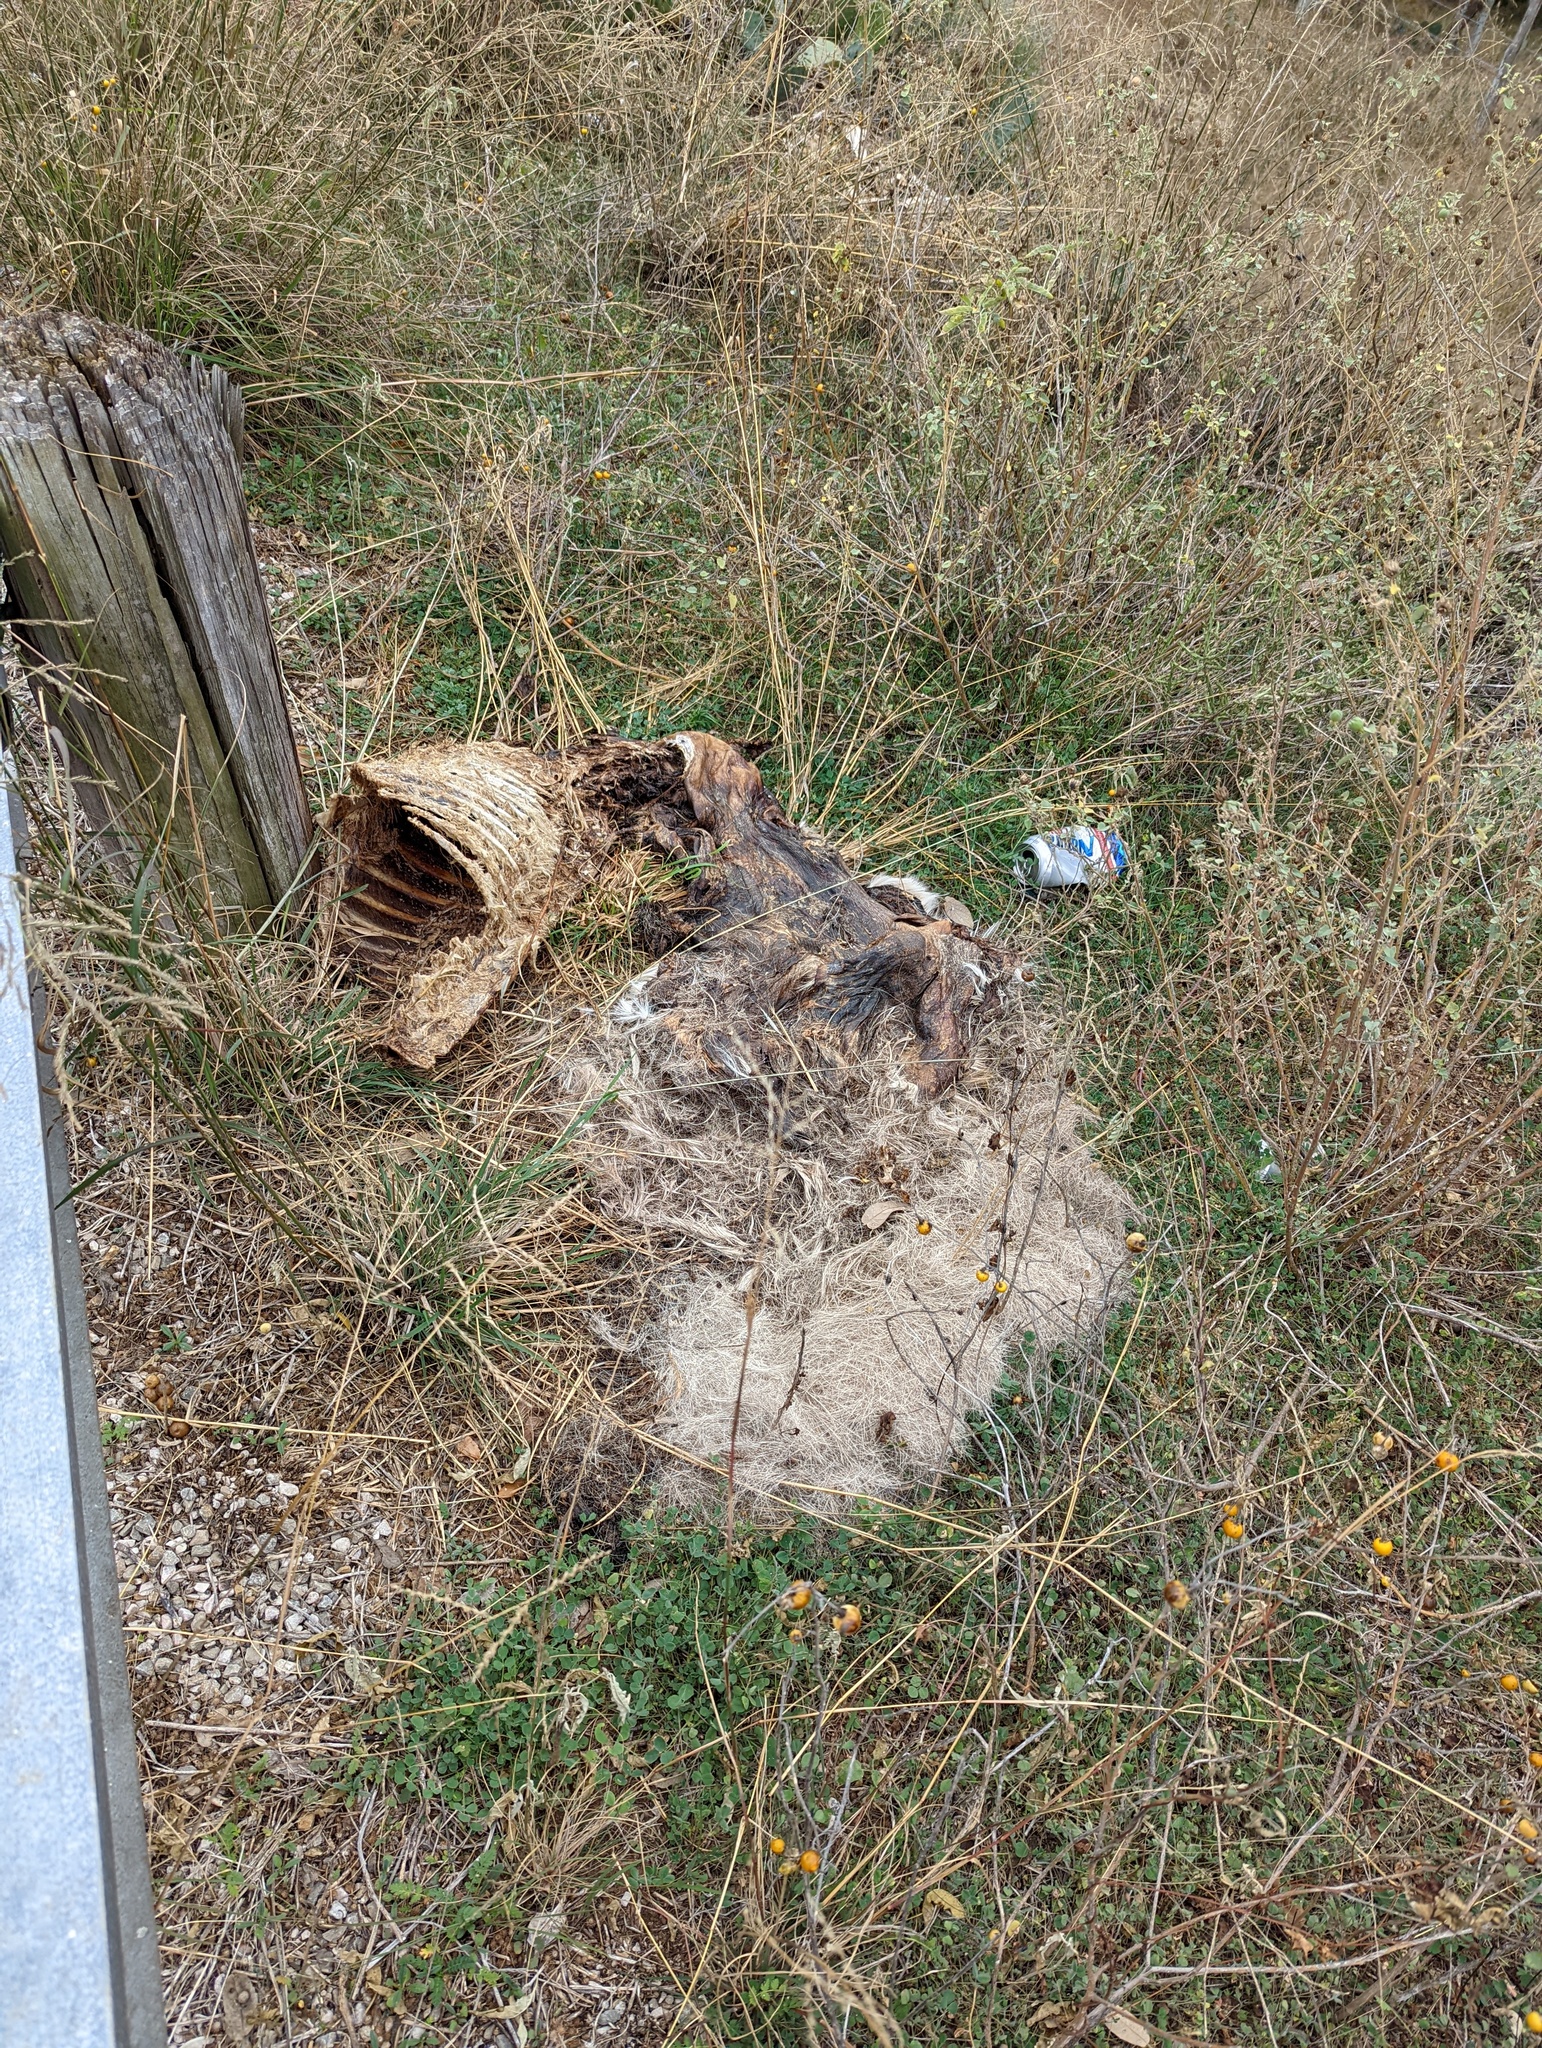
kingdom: Animalia
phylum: Chordata
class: Mammalia
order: Artiodactyla
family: Cervidae
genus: Odocoileus
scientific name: Odocoileus virginianus
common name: White-tailed deer
